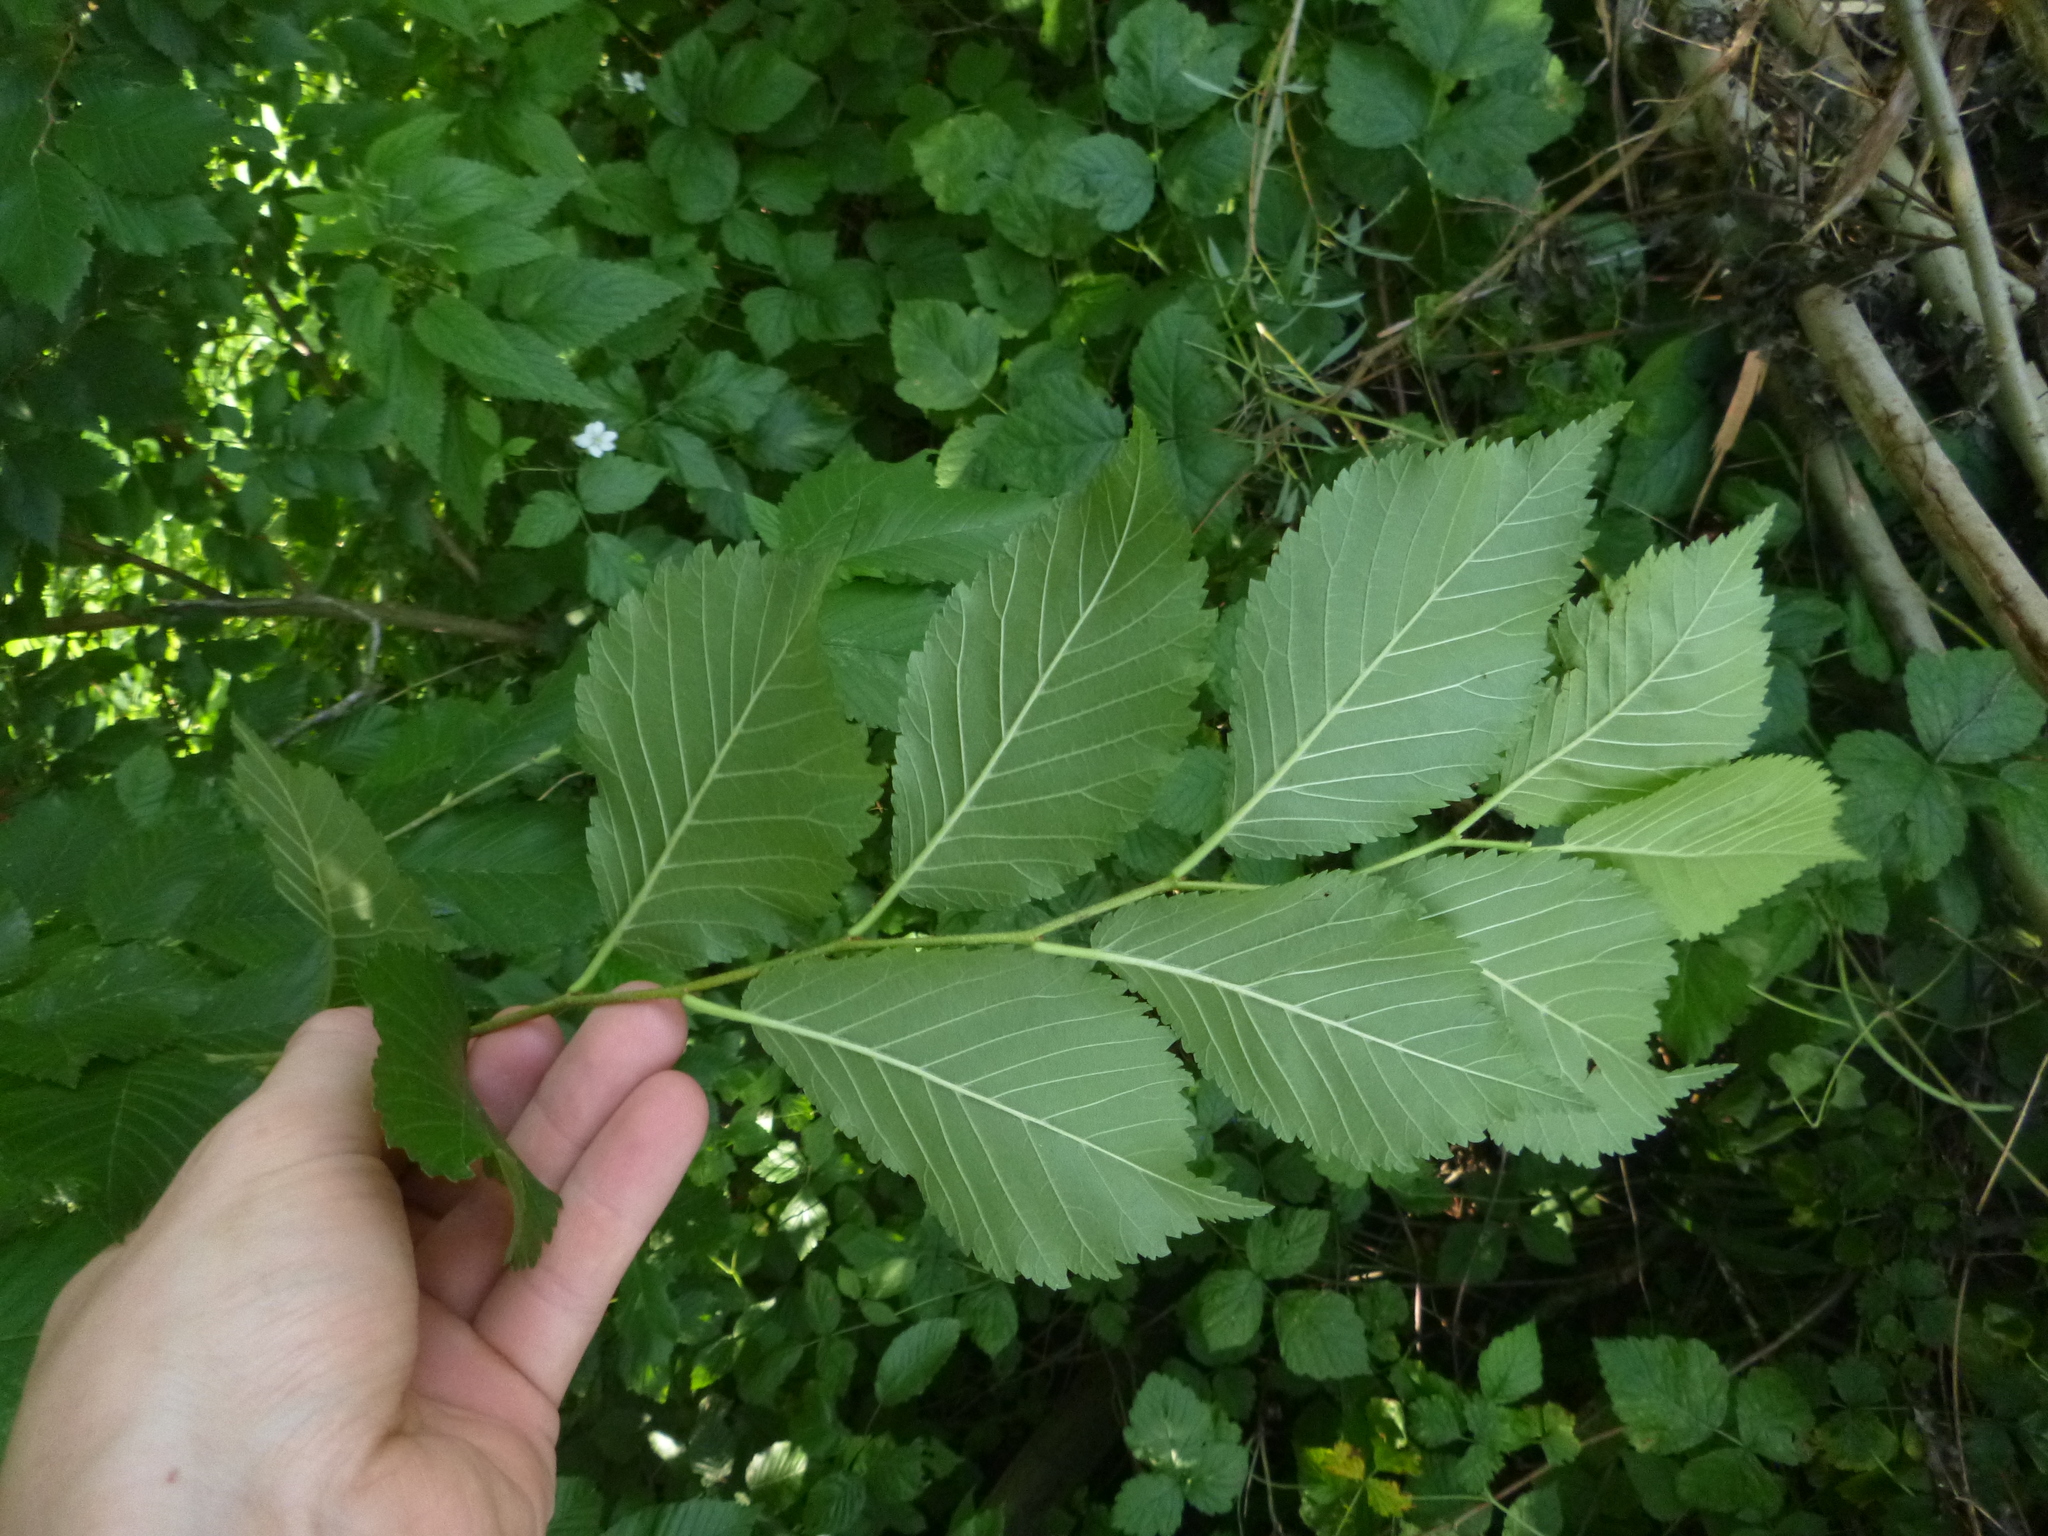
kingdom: Plantae
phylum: Tracheophyta
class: Magnoliopsida
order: Rosales
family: Ulmaceae
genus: Ulmus
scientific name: Ulmus glabra
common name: Wych elm
